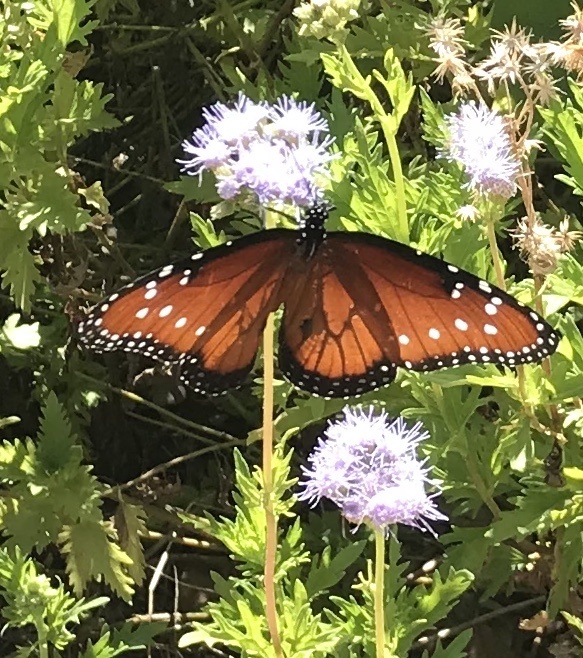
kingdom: Animalia
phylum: Arthropoda
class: Insecta
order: Lepidoptera
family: Nymphalidae
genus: Danaus
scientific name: Danaus gilippus
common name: Queen
